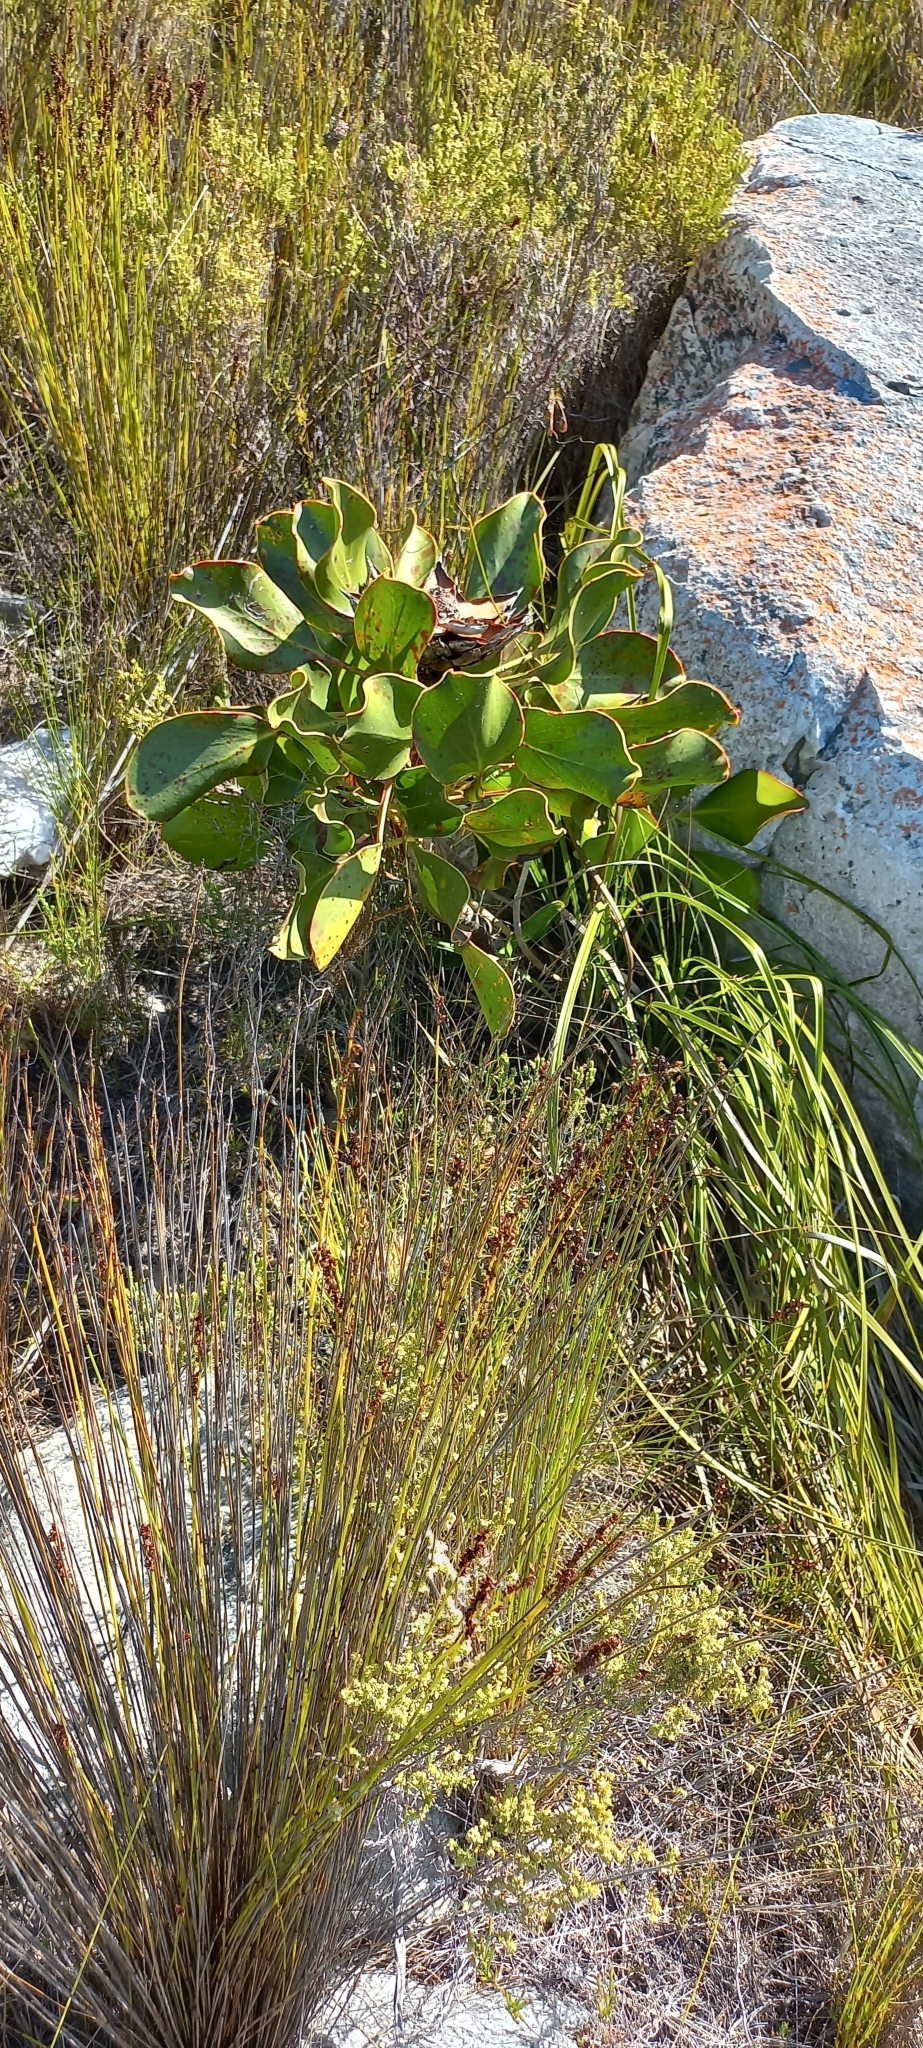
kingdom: Plantae
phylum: Tracheophyta
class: Magnoliopsida
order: Proteales
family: Proteaceae
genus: Protea
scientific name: Protea cynaroides
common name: King protea
